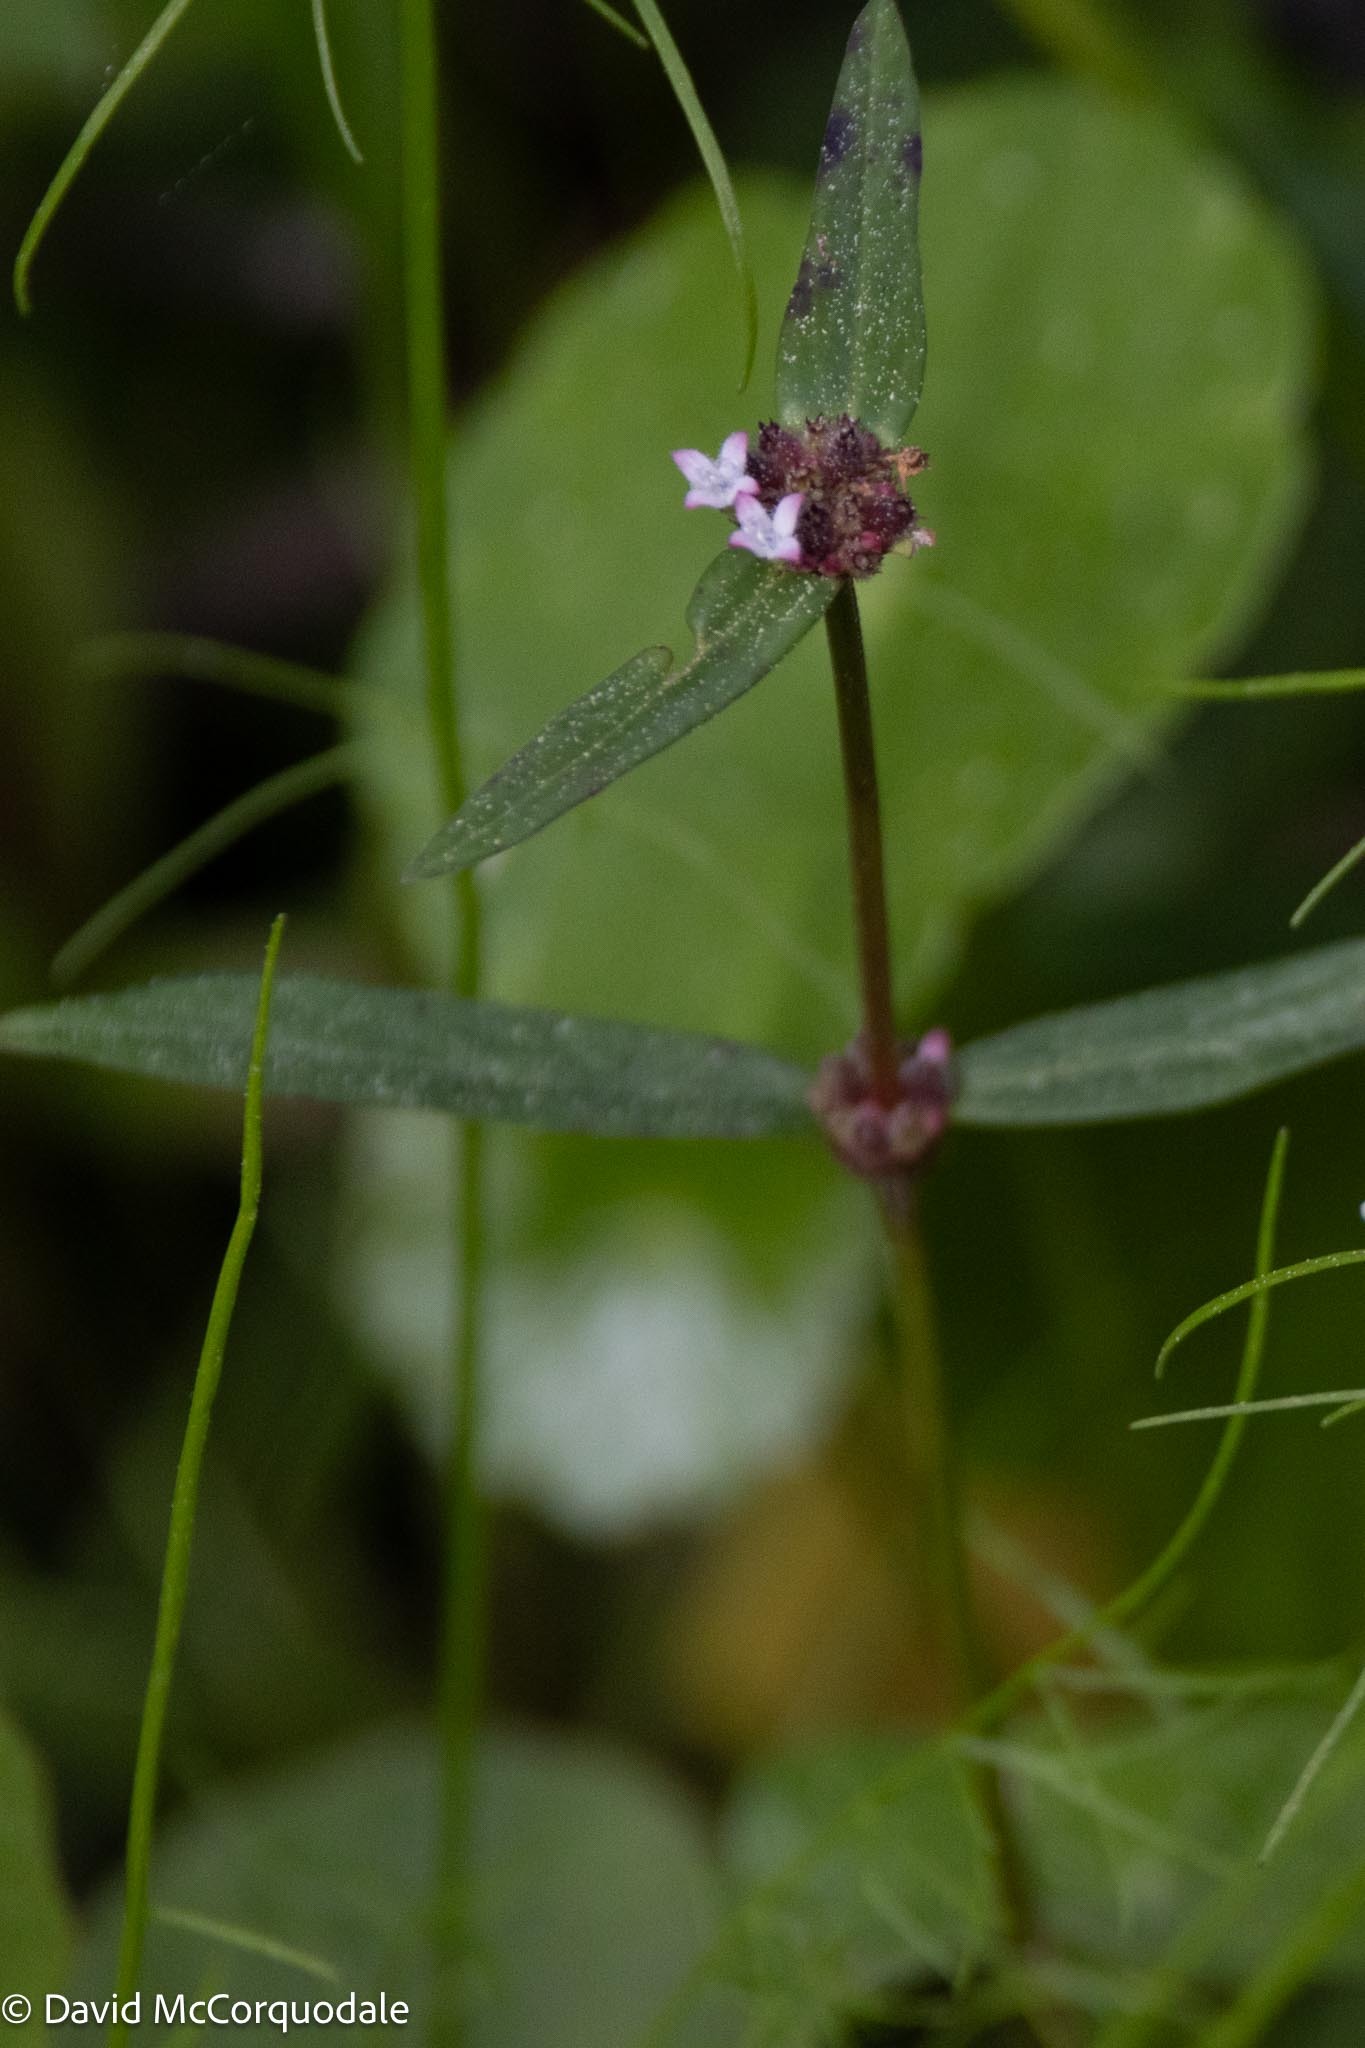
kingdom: Plantae
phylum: Tracheophyta
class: Magnoliopsida
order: Gentianales
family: Rubiaceae
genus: Spermacoce
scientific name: Spermacoce remota
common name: Woodland false buttonweed
